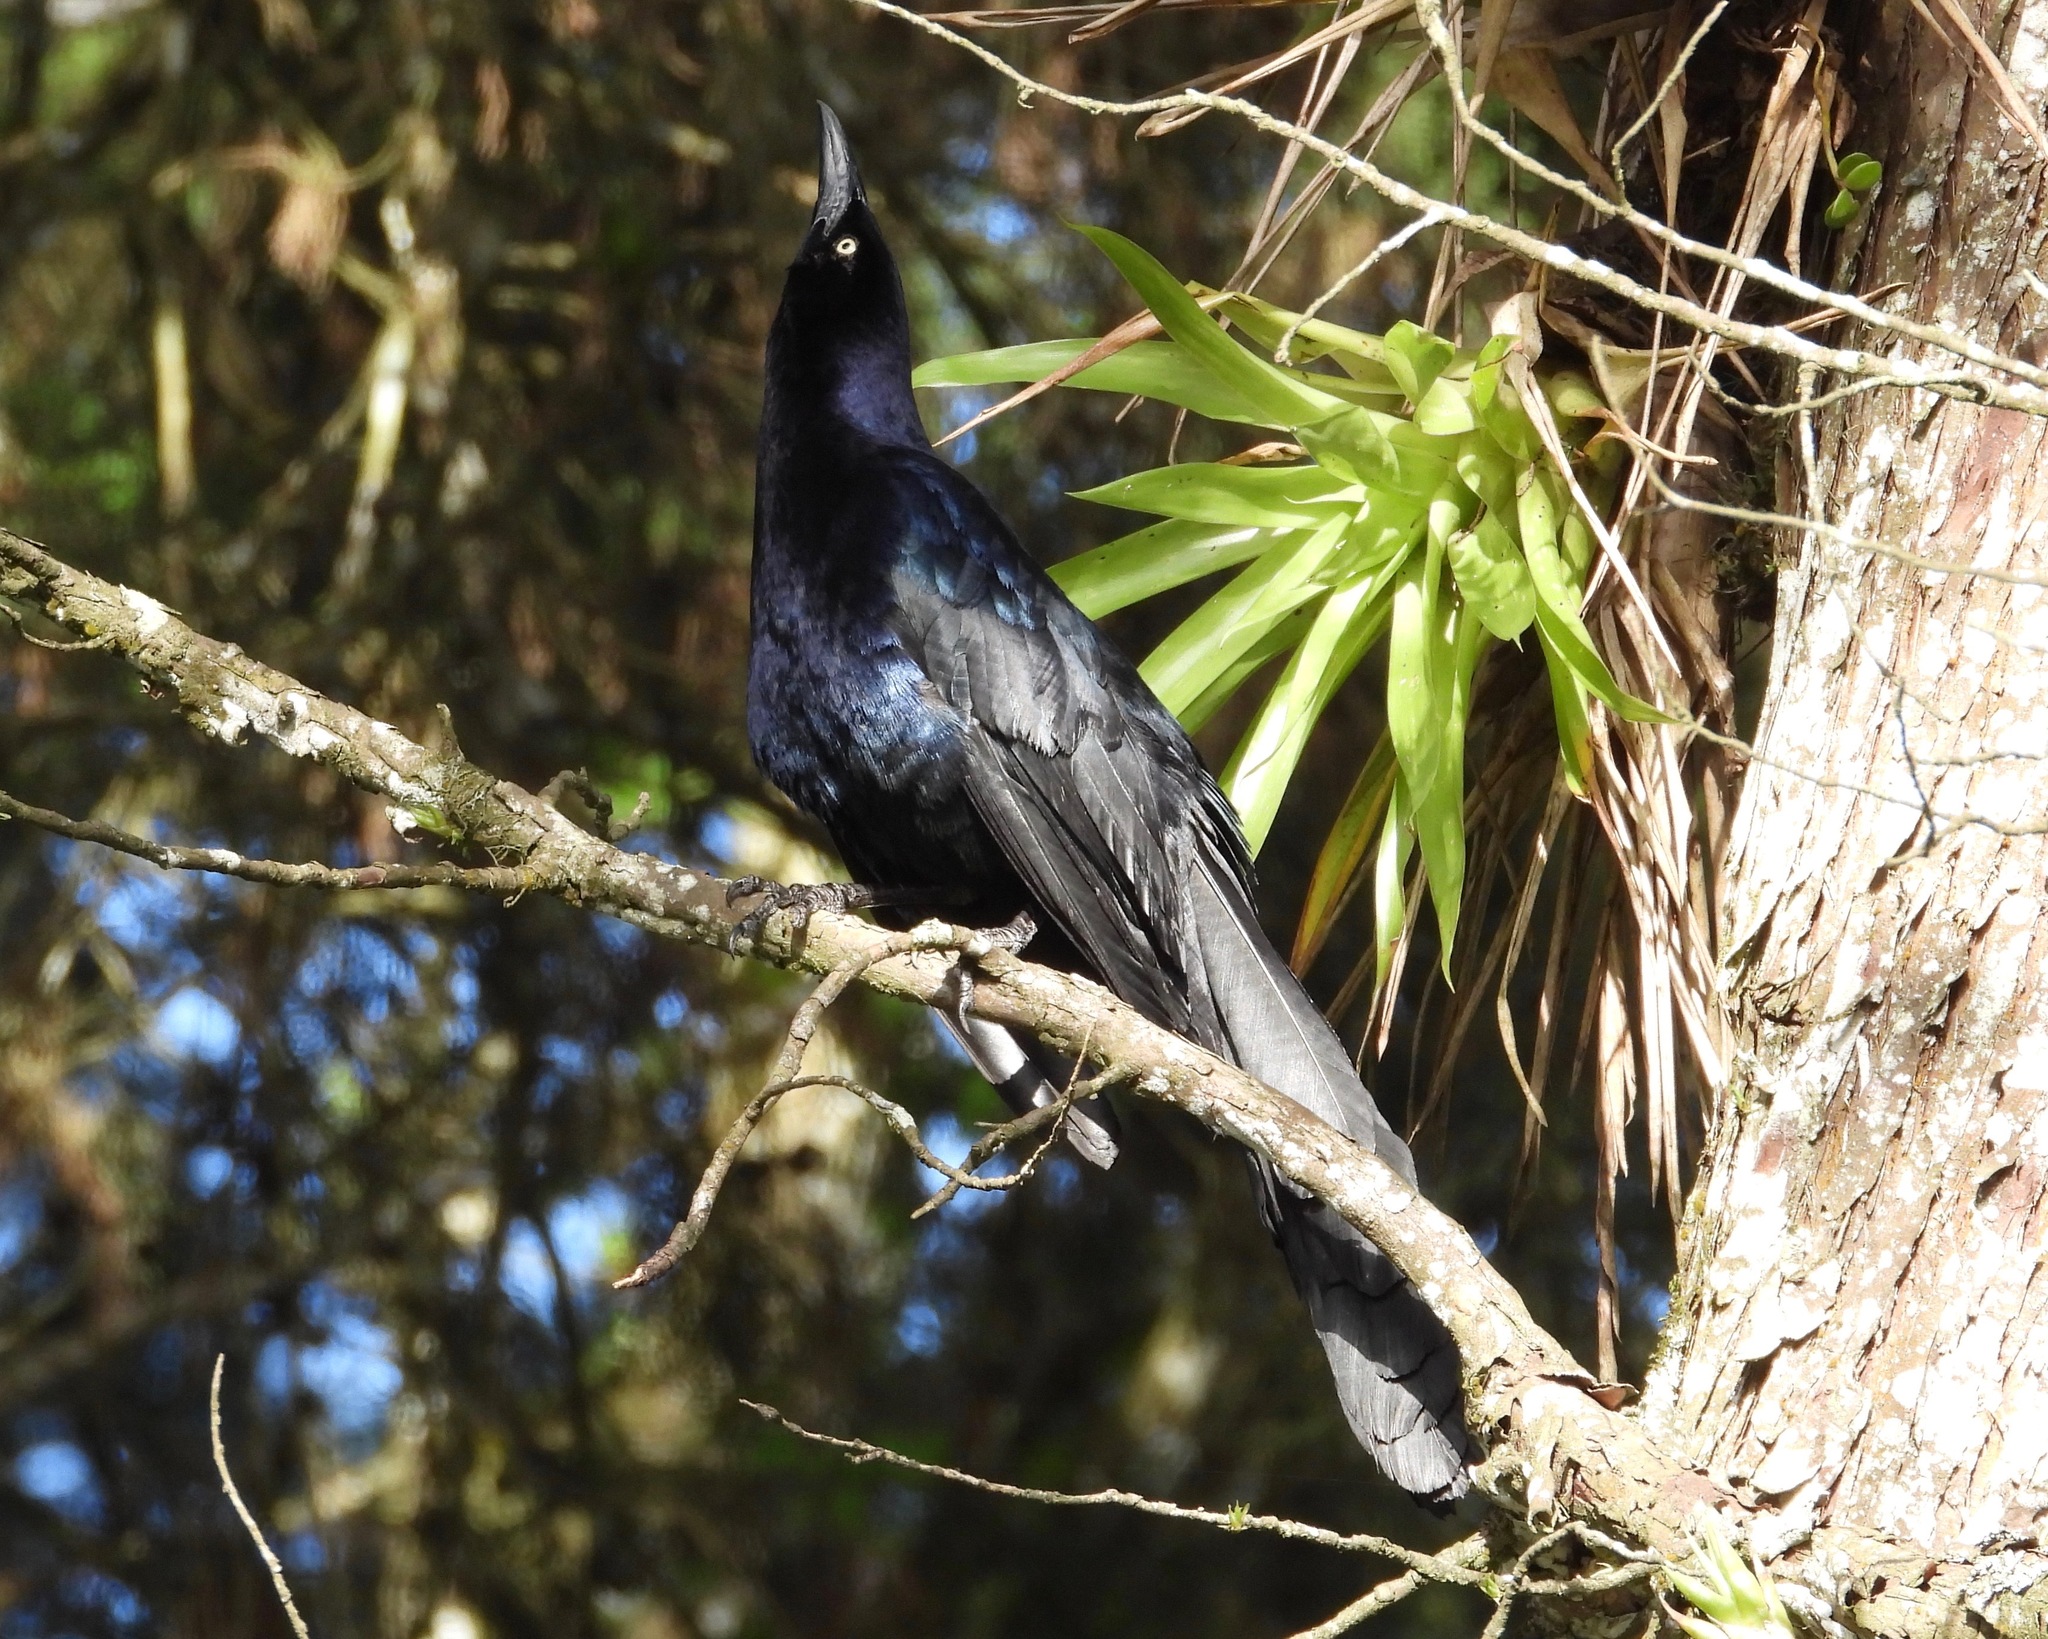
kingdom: Animalia
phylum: Chordata
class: Aves
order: Passeriformes
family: Icteridae
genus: Quiscalus
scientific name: Quiscalus mexicanus
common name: Great-tailed grackle
